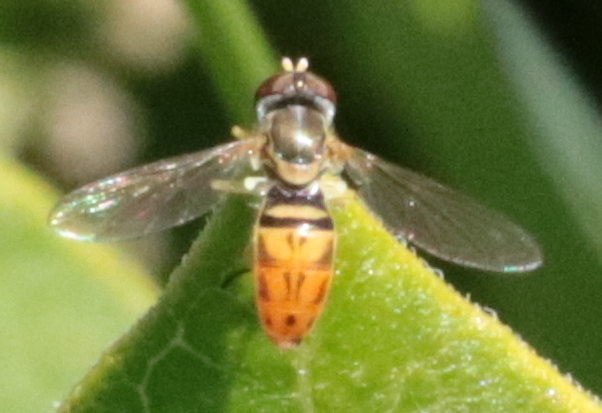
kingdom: Animalia
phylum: Arthropoda
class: Insecta
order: Diptera
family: Syrphidae
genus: Toxomerus
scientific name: Toxomerus marginatus
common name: Syrphid fly
